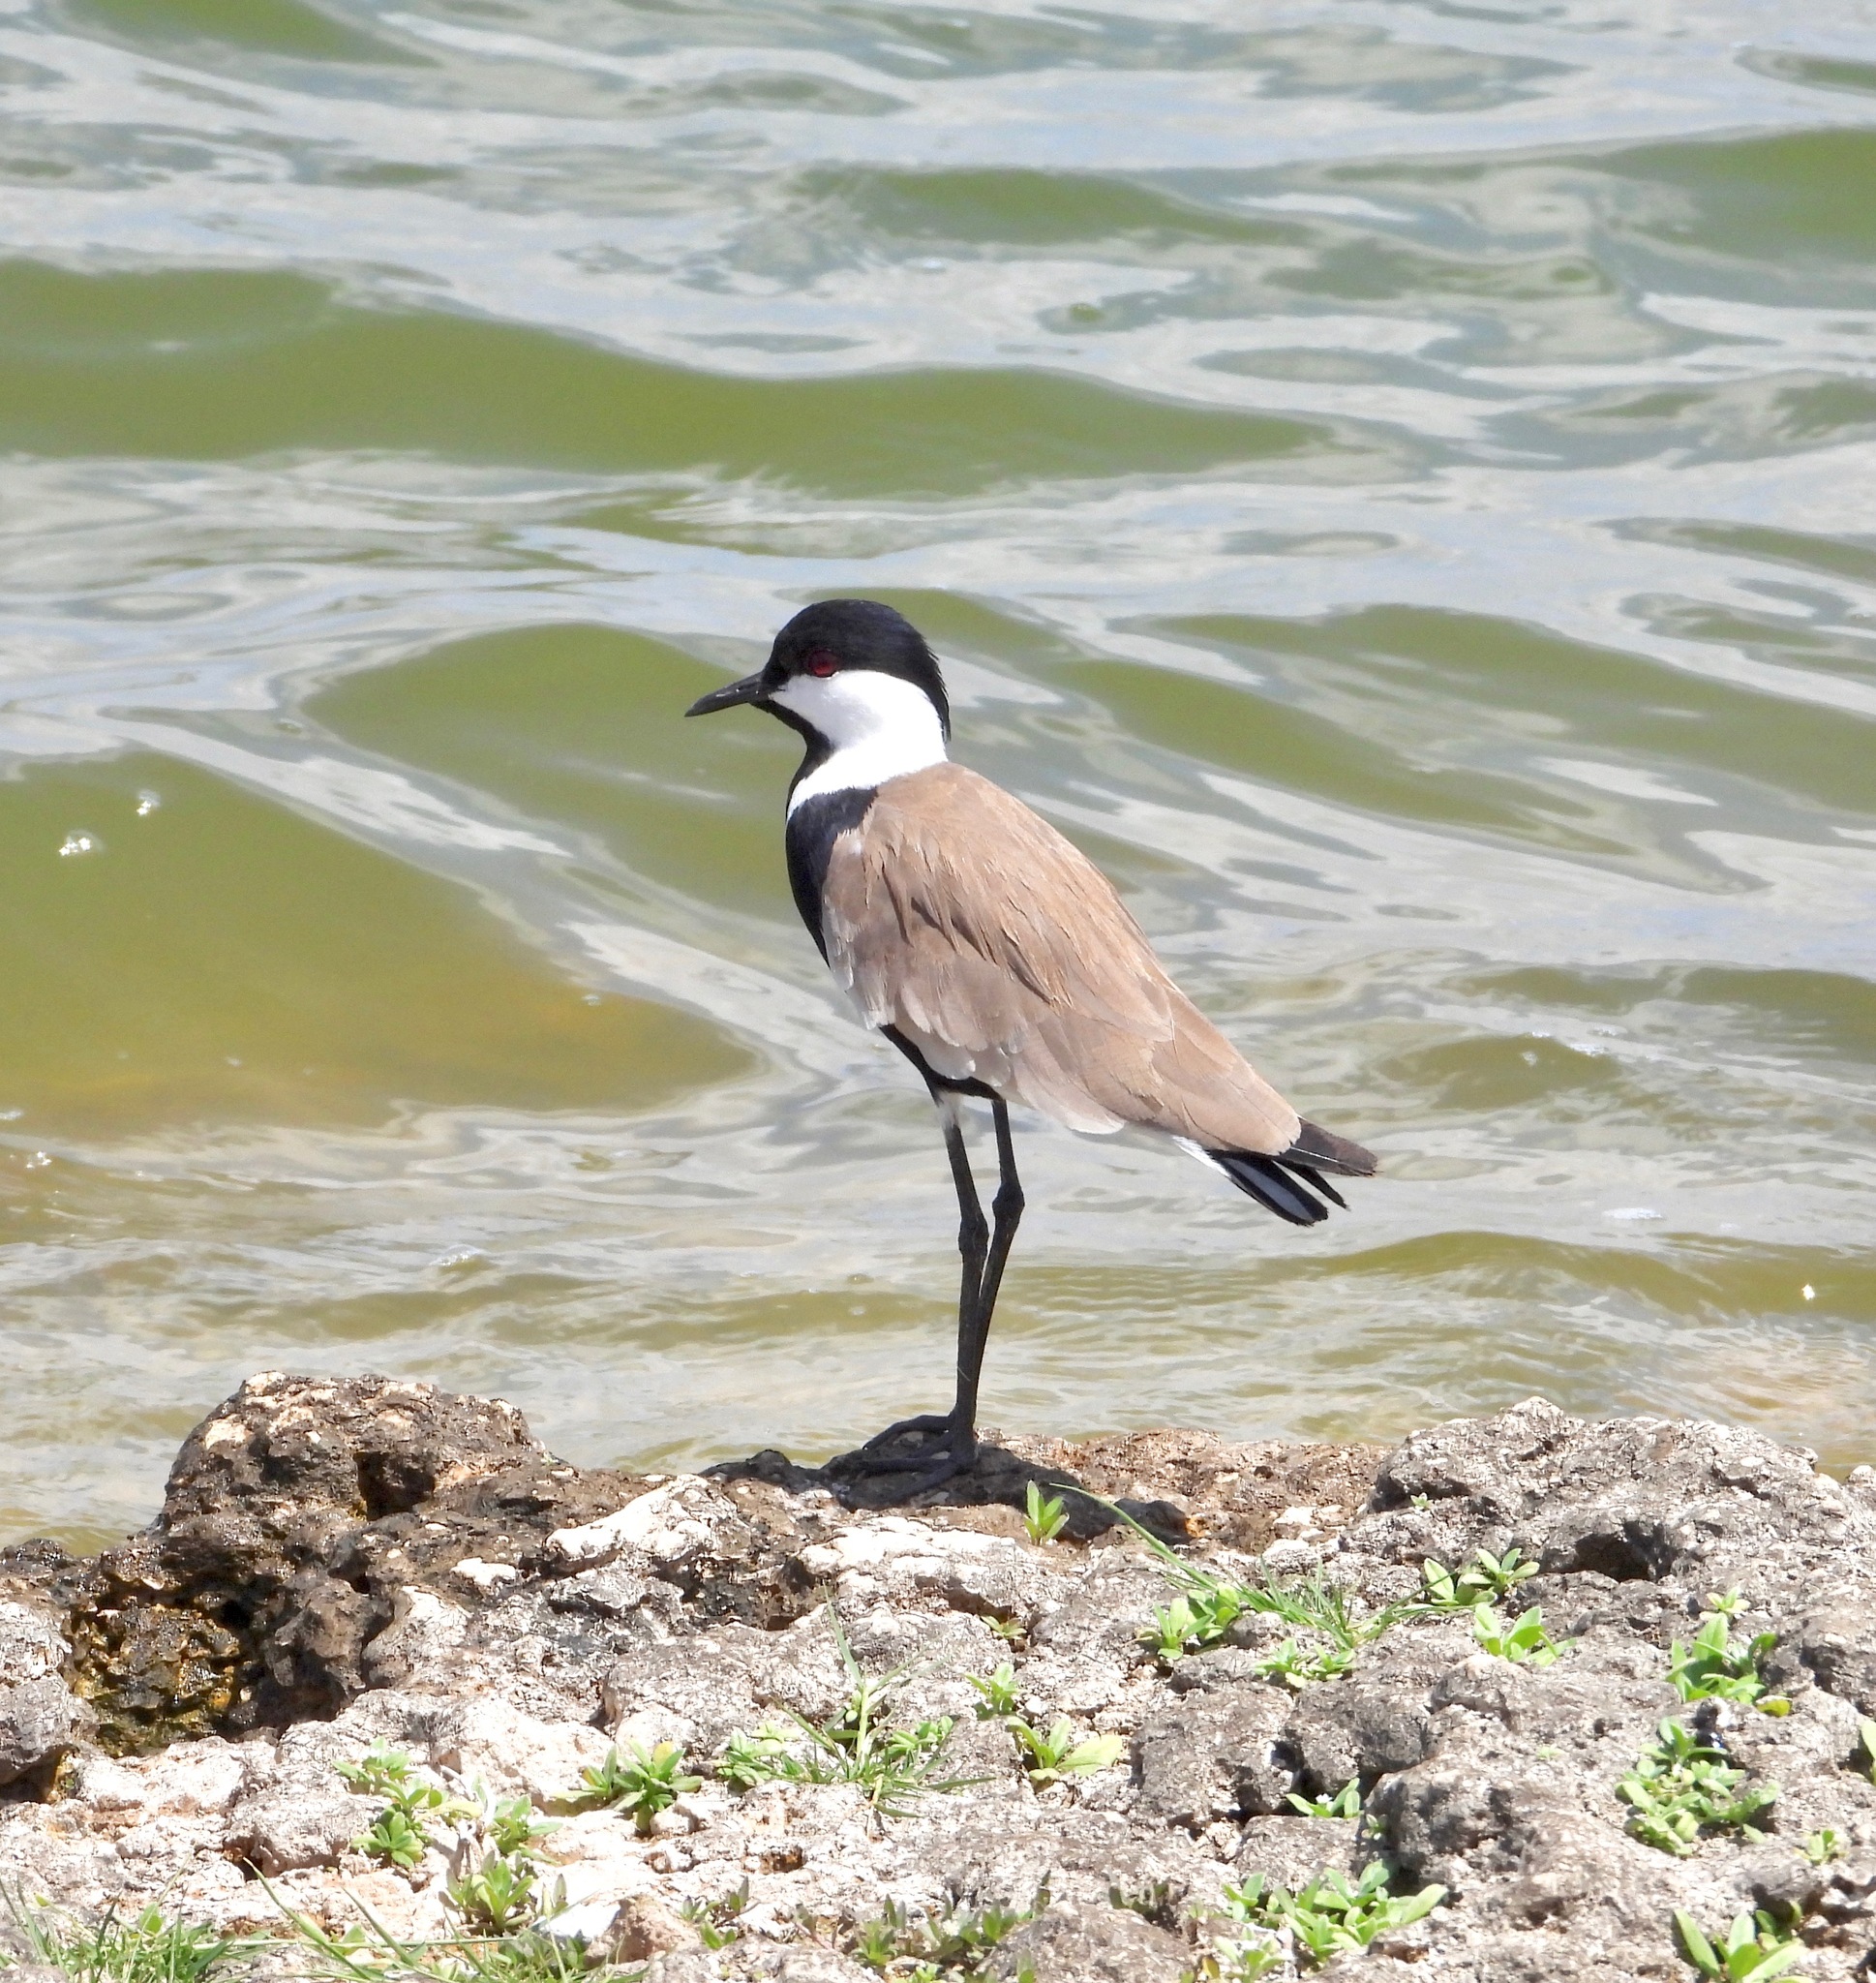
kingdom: Animalia
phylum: Chordata
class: Aves
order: Charadriiformes
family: Charadriidae
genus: Vanellus
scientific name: Vanellus spinosus
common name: Spur-winged lapwing
